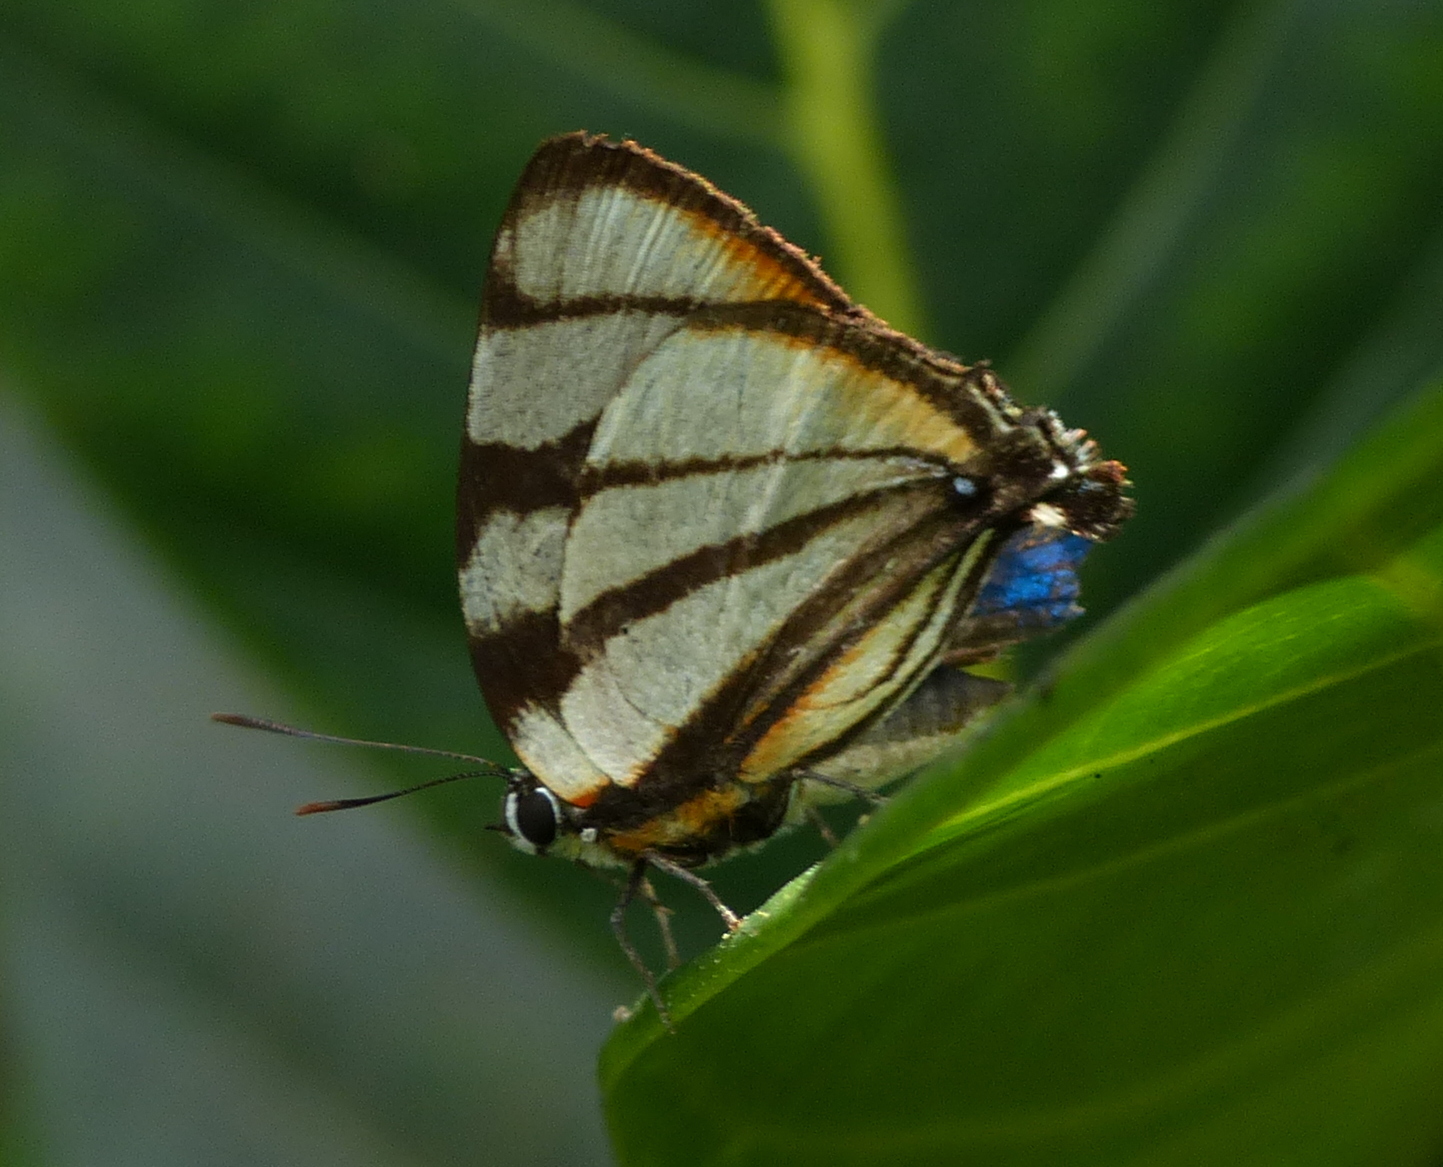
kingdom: Animalia
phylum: Arthropoda
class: Insecta
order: Lepidoptera
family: Lycaenidae
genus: Cycnus
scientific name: Cycnus phaleros
